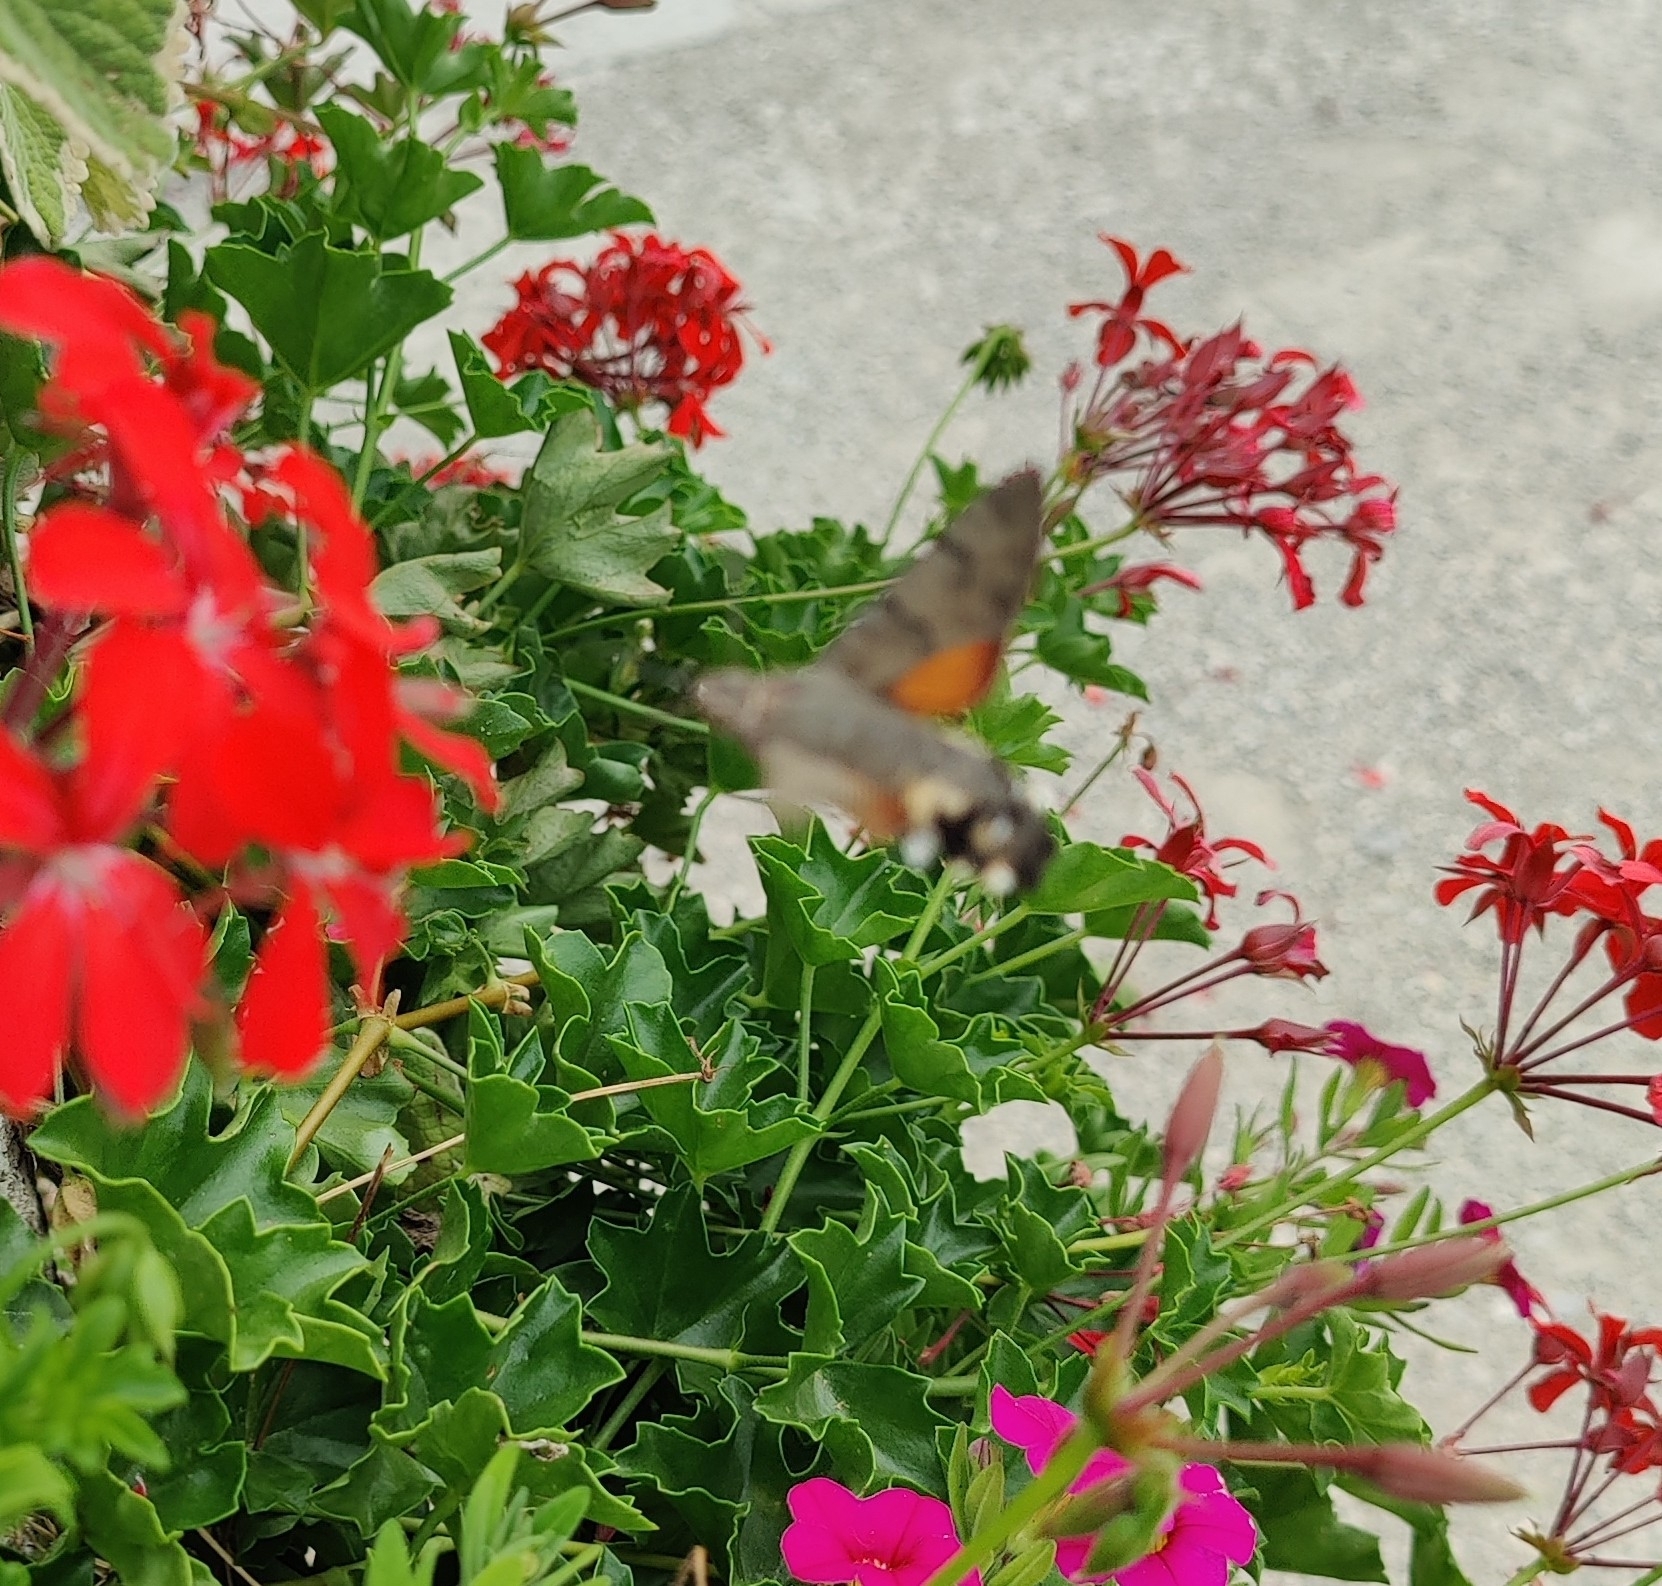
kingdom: Animalia
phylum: Arthropoda
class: Insecta
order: Lepidoptera
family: Sphingidae
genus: Macroglossum
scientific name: Macroglossum stellatarum
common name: Humming-bird hawk-moth
